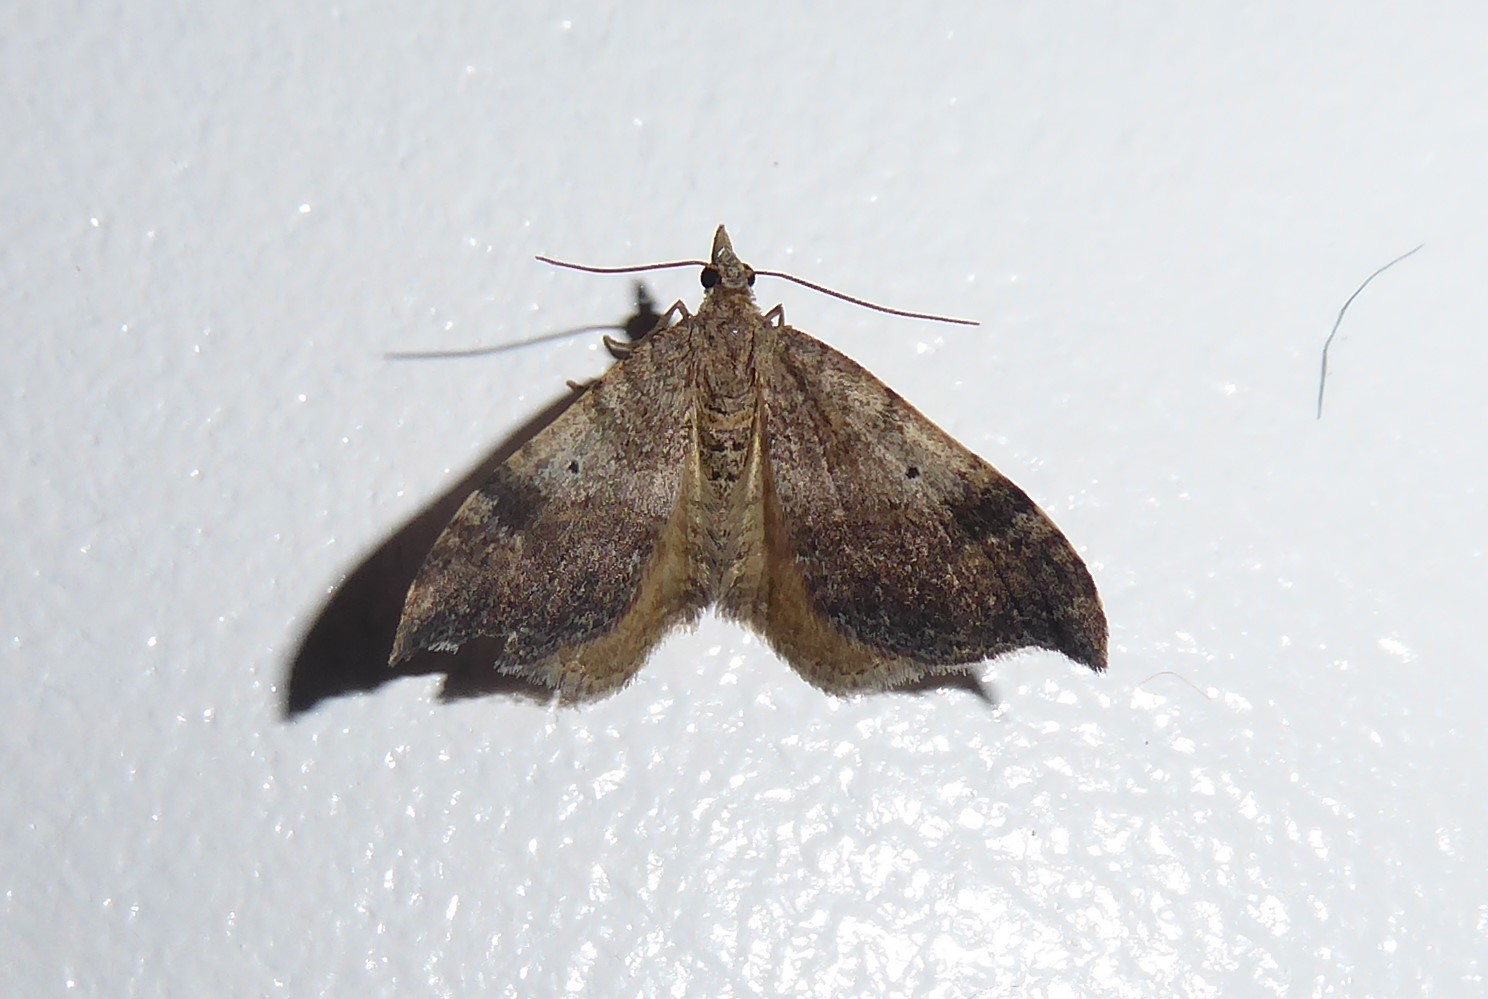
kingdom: Animalia
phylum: Arthropoda
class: Insecta
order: Lepidoptera
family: Geometridae
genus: Homodotis
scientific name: Homodotis megaspilata
